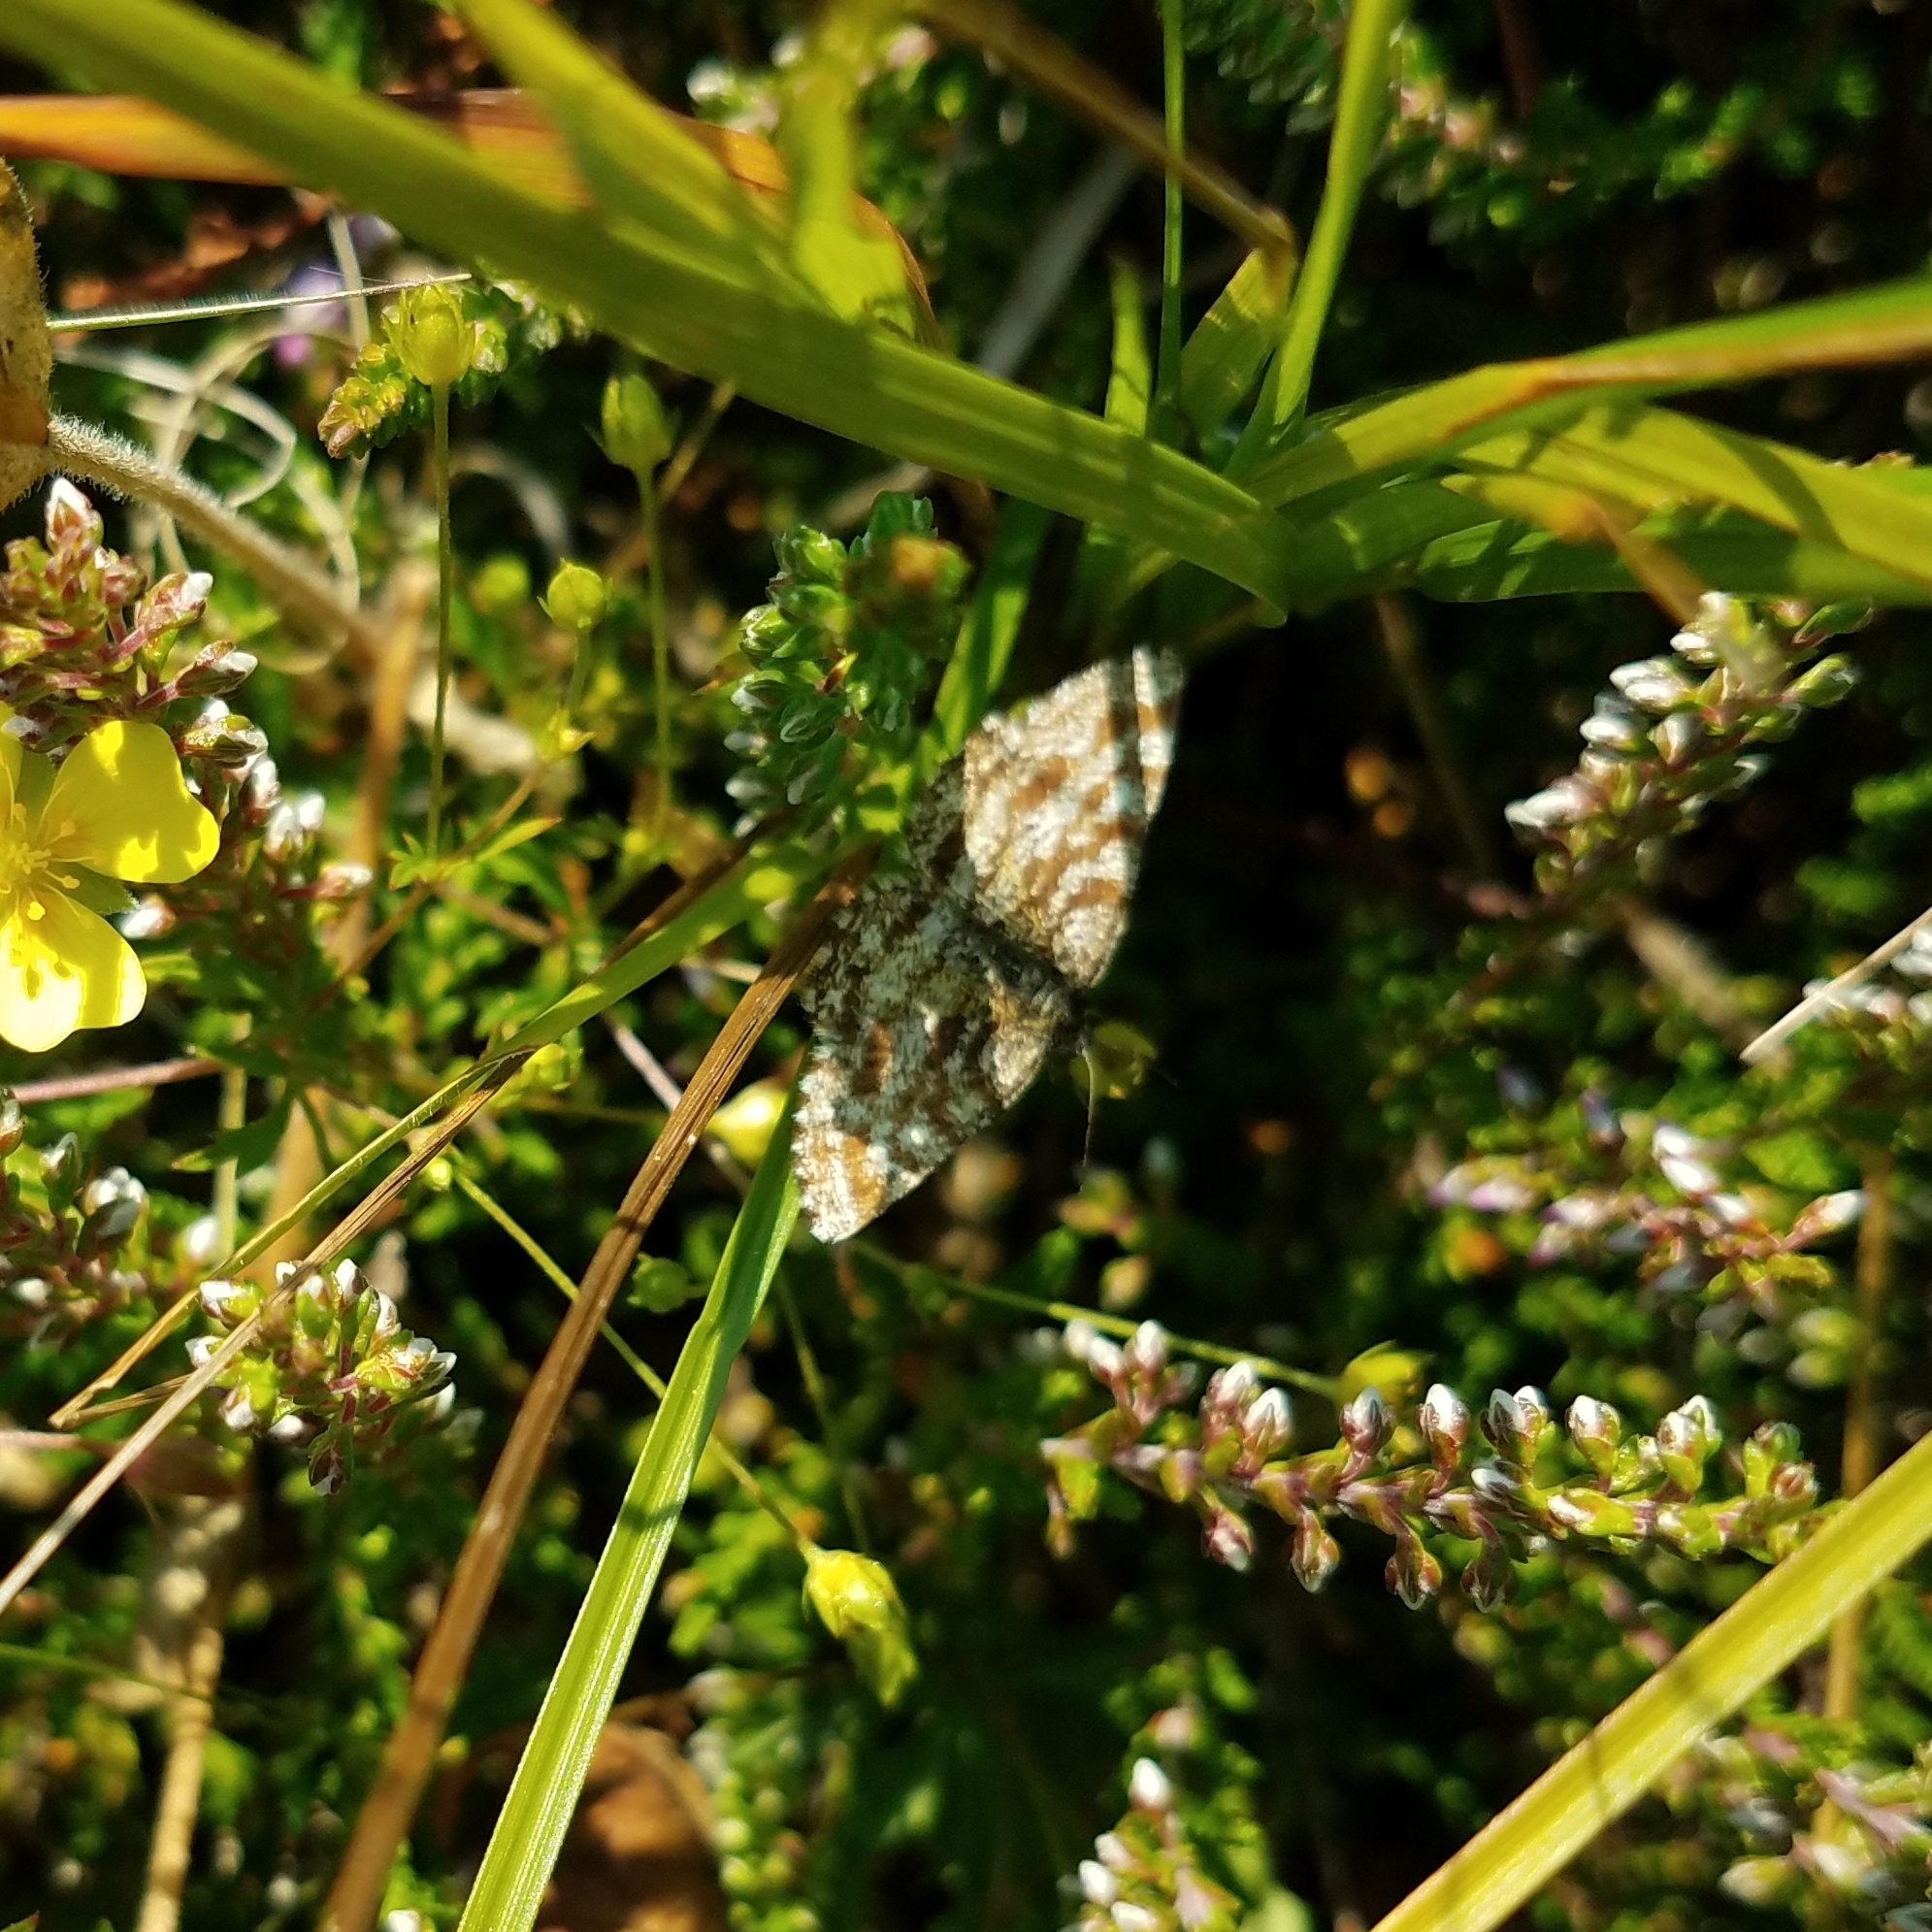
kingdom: Animalia
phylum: Arthropoda
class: Insecta
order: Lepidoptera
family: Geometridae
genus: Ematurga
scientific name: Ematurga atomaria
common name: Common heath
